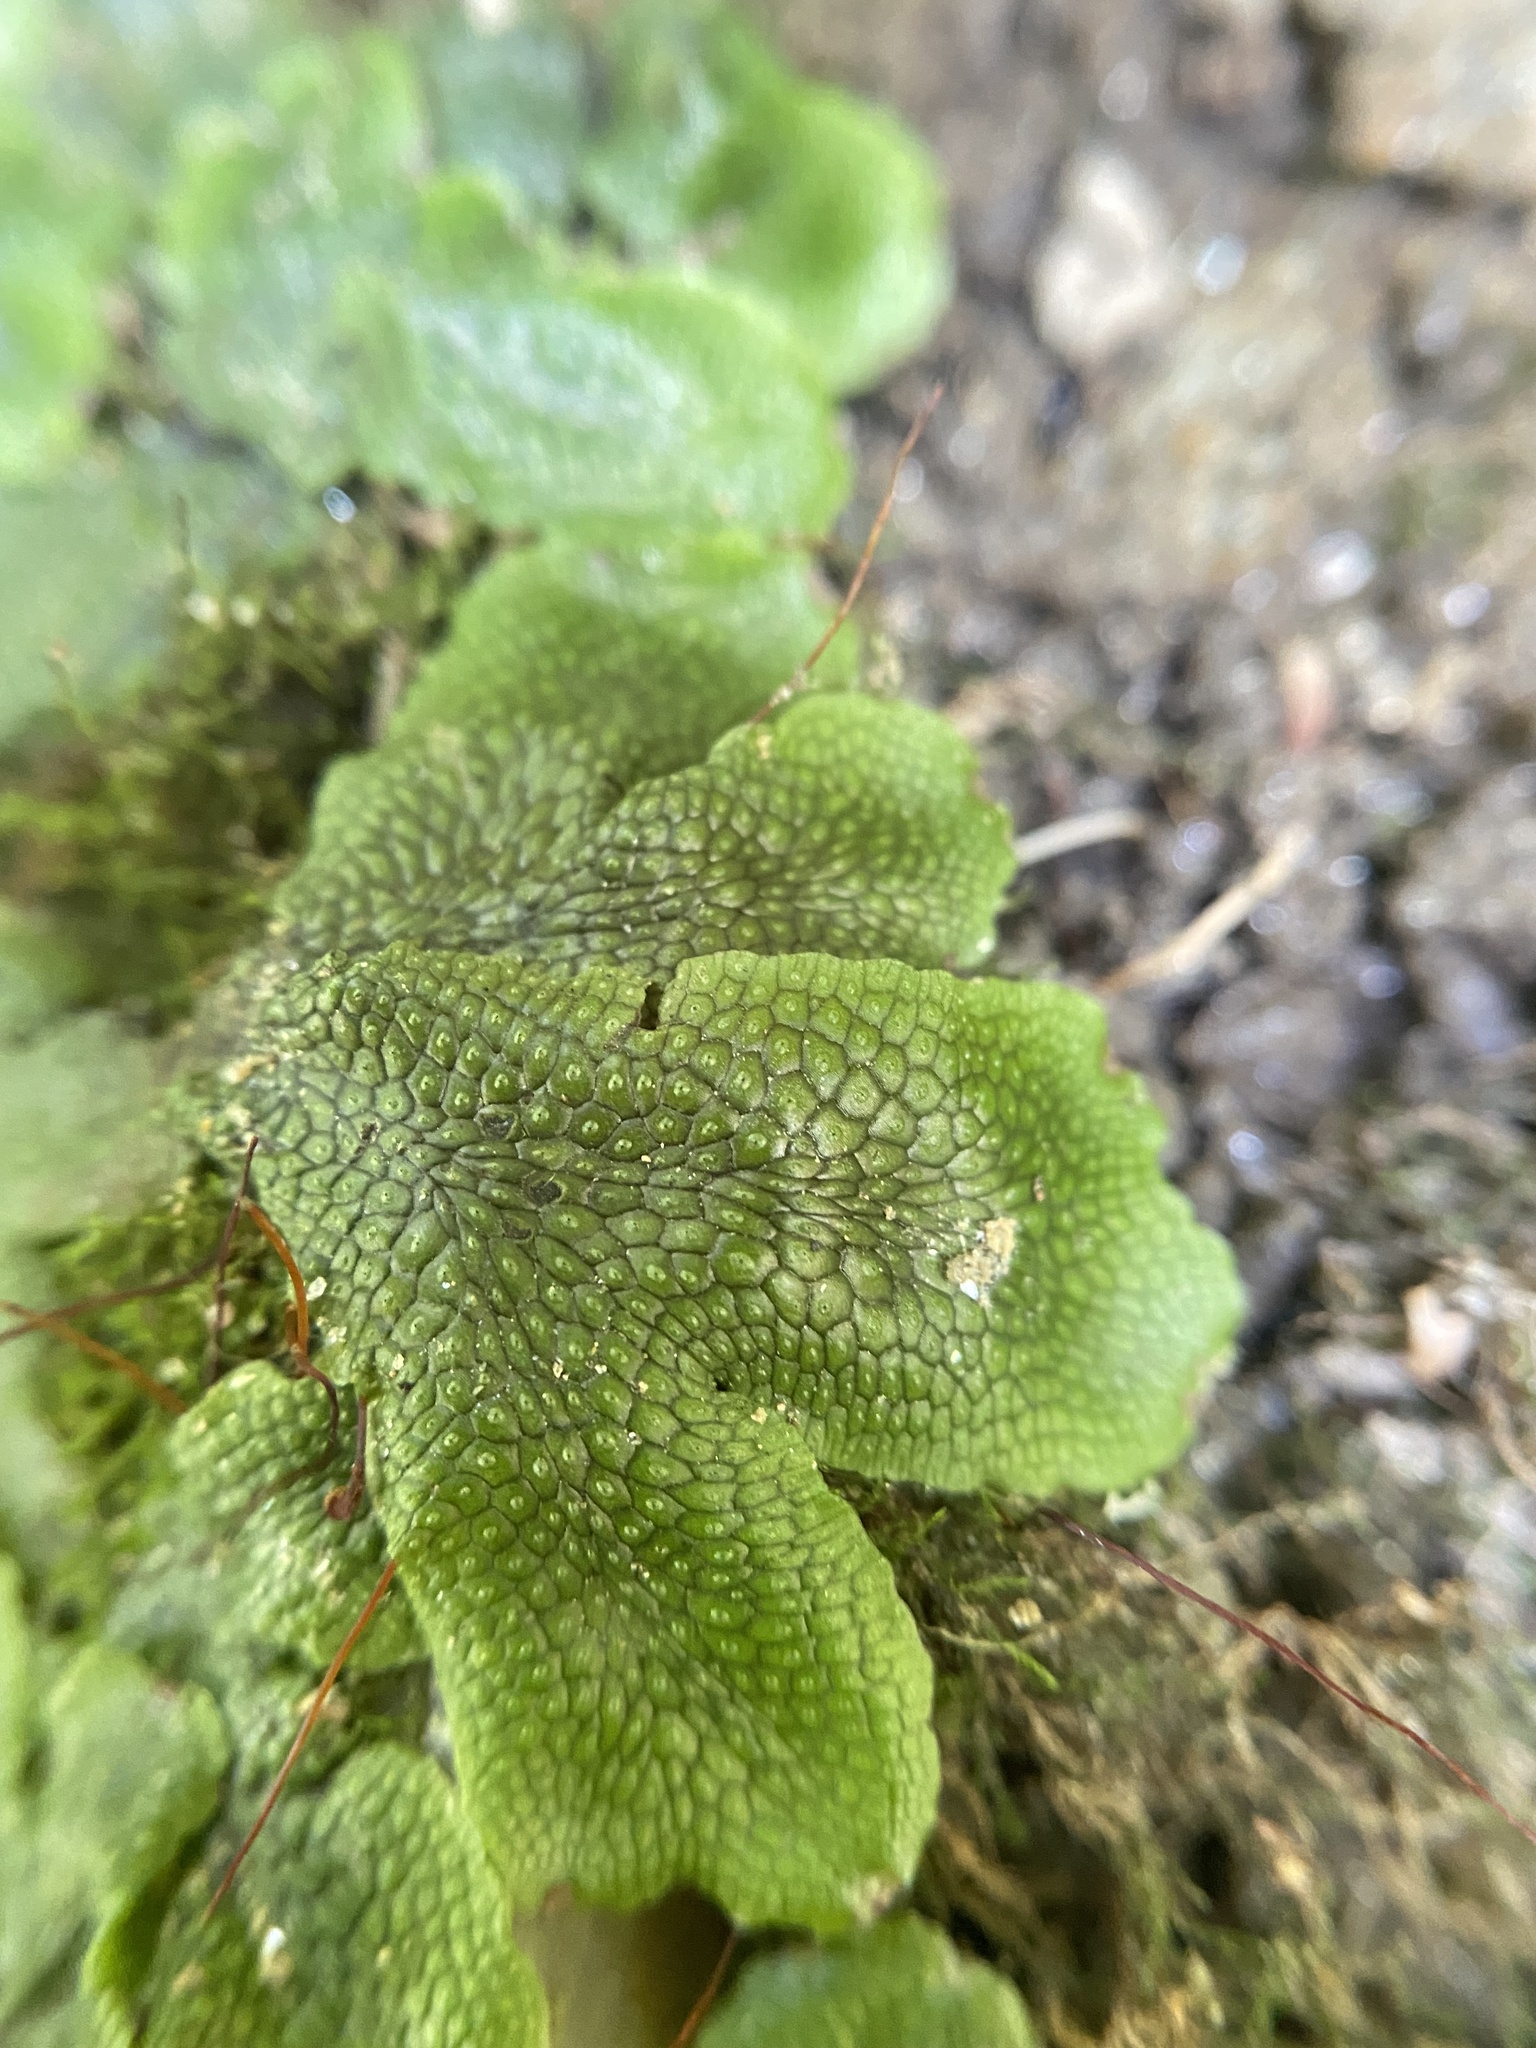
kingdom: Plantae
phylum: Marchantiophyta
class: Marchantiopsida
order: Marchantiales
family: Conocephalaceae
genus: Conocephalum
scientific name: Conocephalum salebrosum
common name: Cat-tongue liverwort
